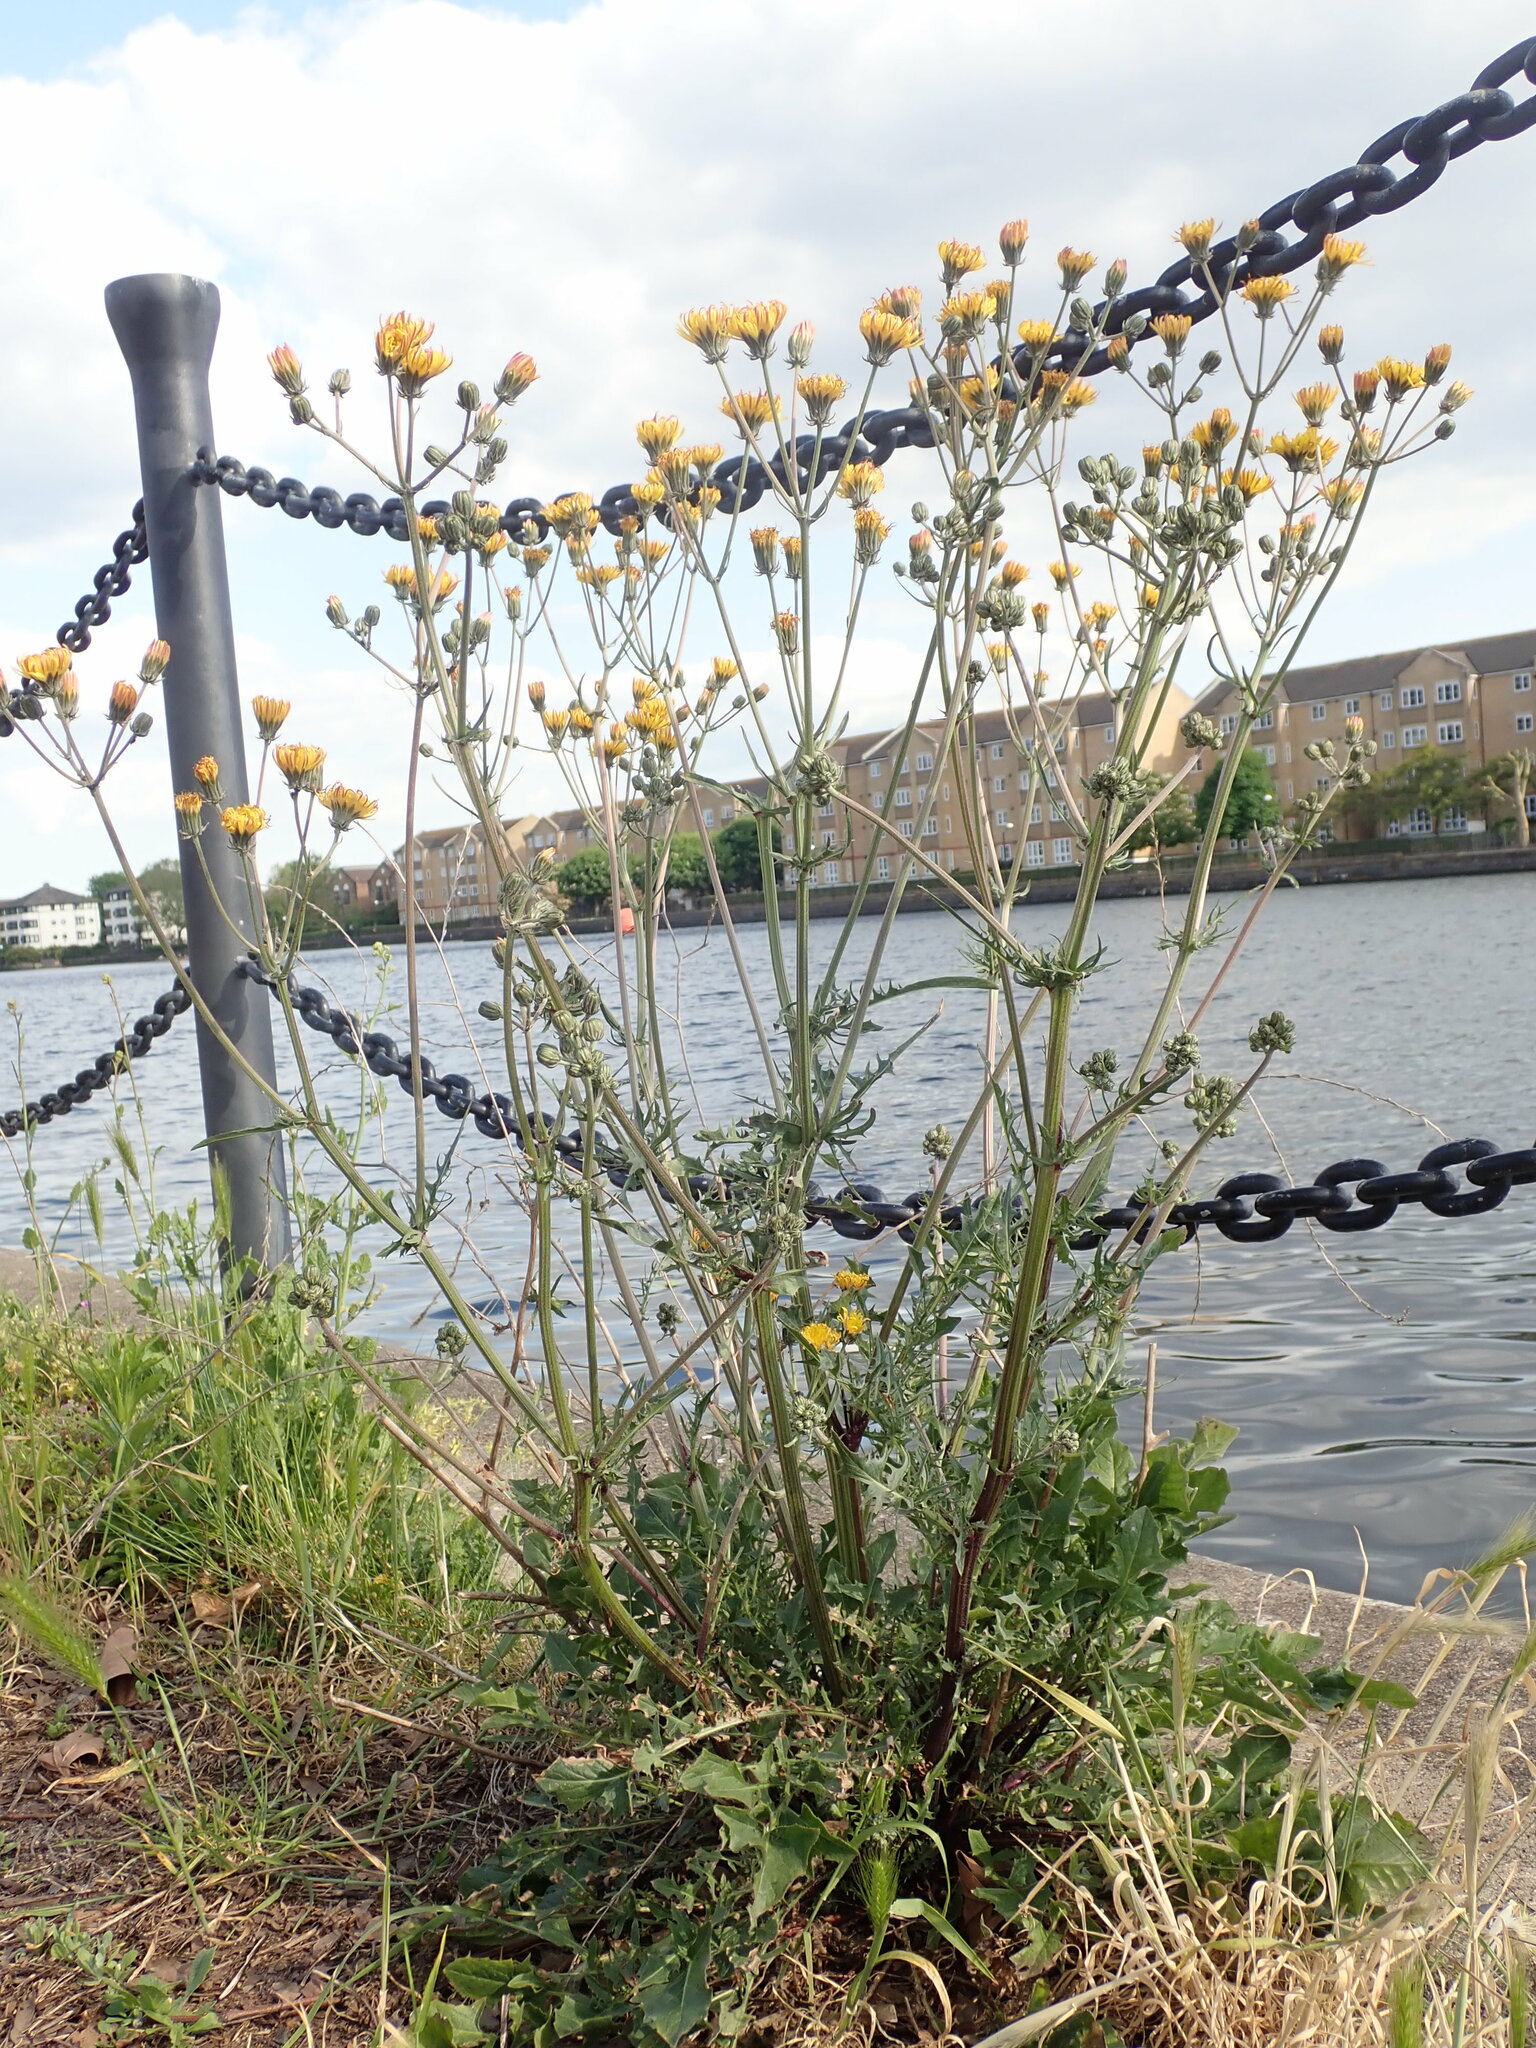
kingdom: Plantae
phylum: Tracheophyta
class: Magnoliopsida
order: Asterales
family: Asteraceae
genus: Crepis
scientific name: Crepis vesicaria
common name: Beaked hawksbeard
